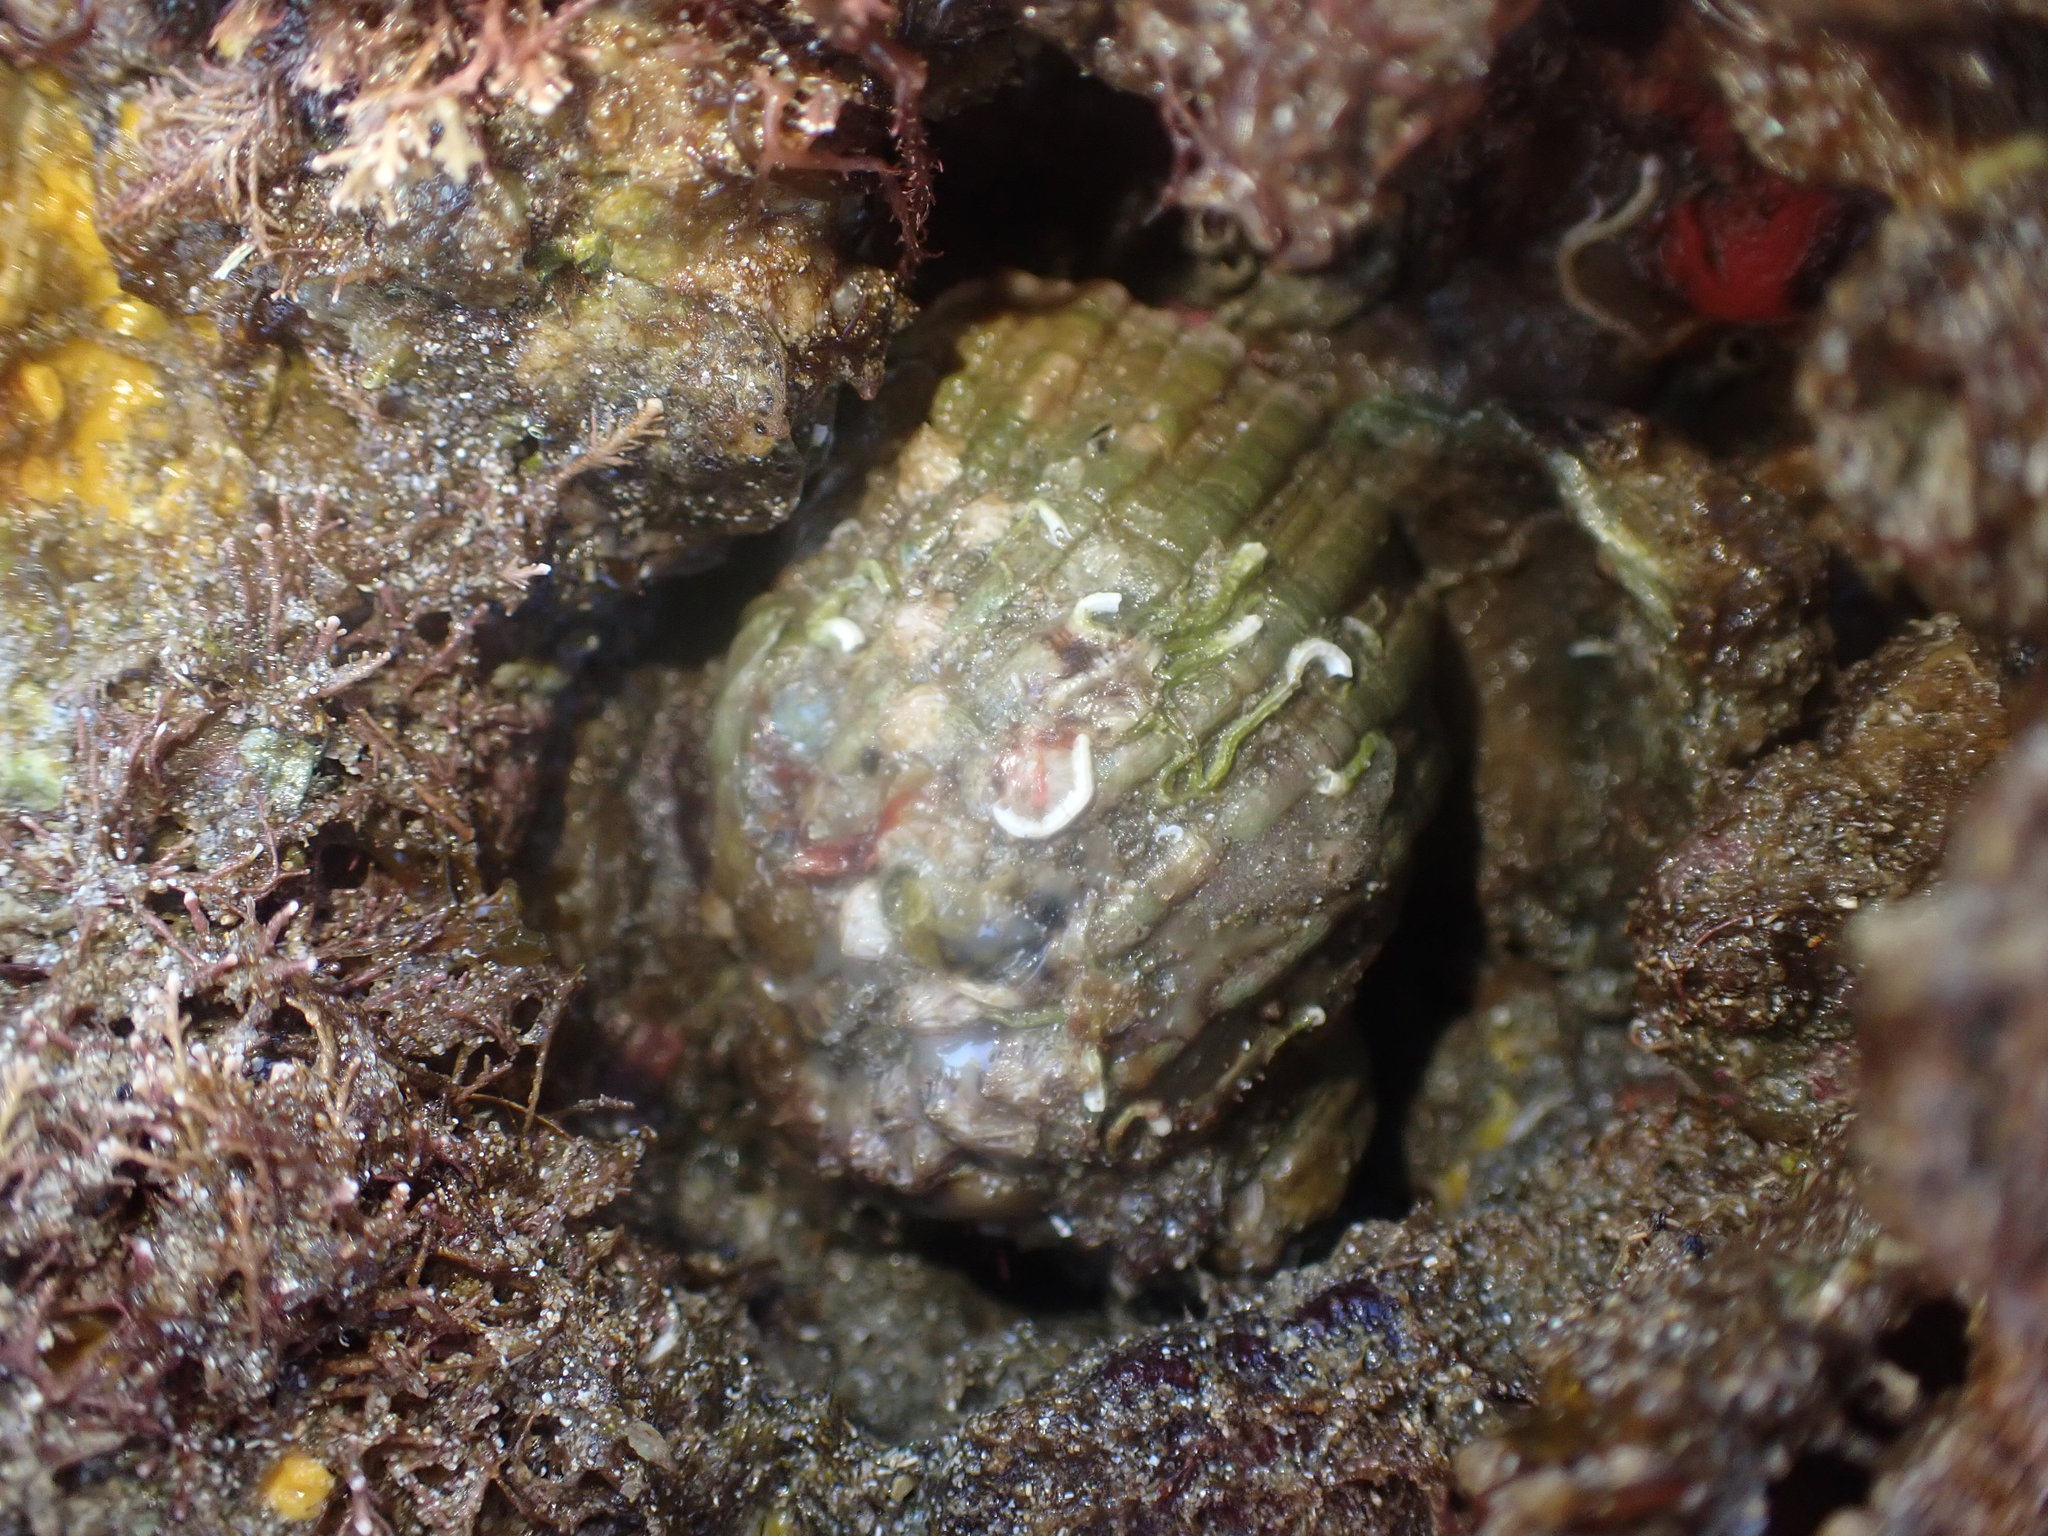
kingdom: Animalia
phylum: Mollusca
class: Gastropoda
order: Neogastropoda
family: Muricidae
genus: Dicathais
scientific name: Dicathais orbita
